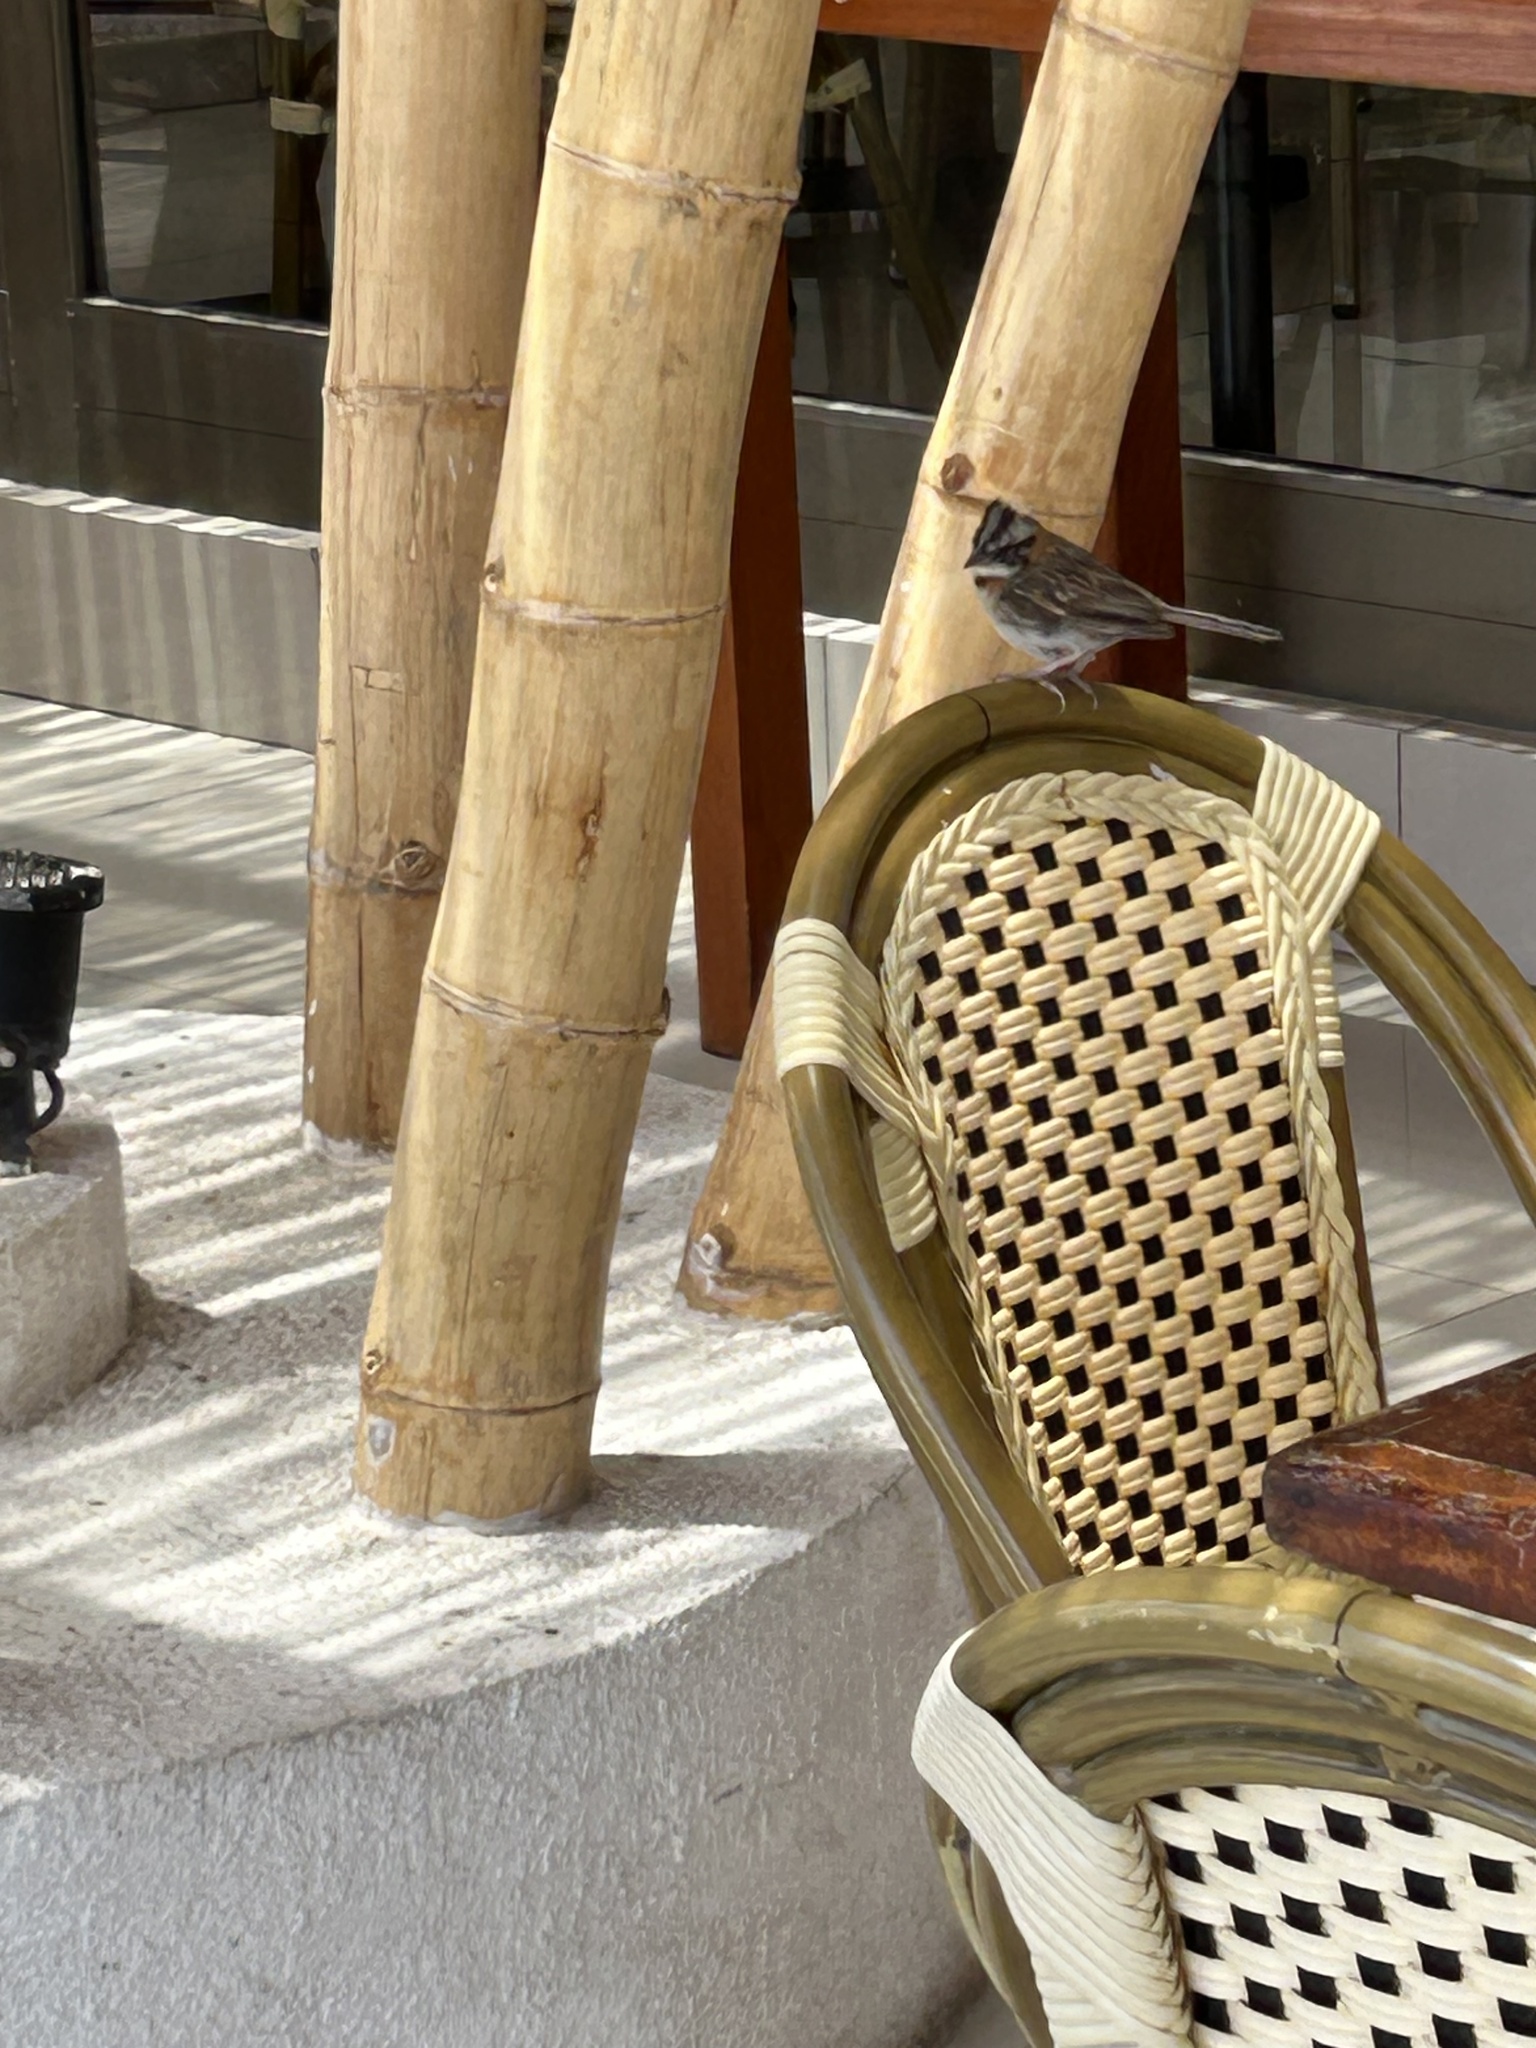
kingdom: Animalia
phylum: Chordata
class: Aves
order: Passeriformes
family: Passerellidae
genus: Zonotrichia
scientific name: Zonotrichia capensis
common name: Rufous-collared sparrow
